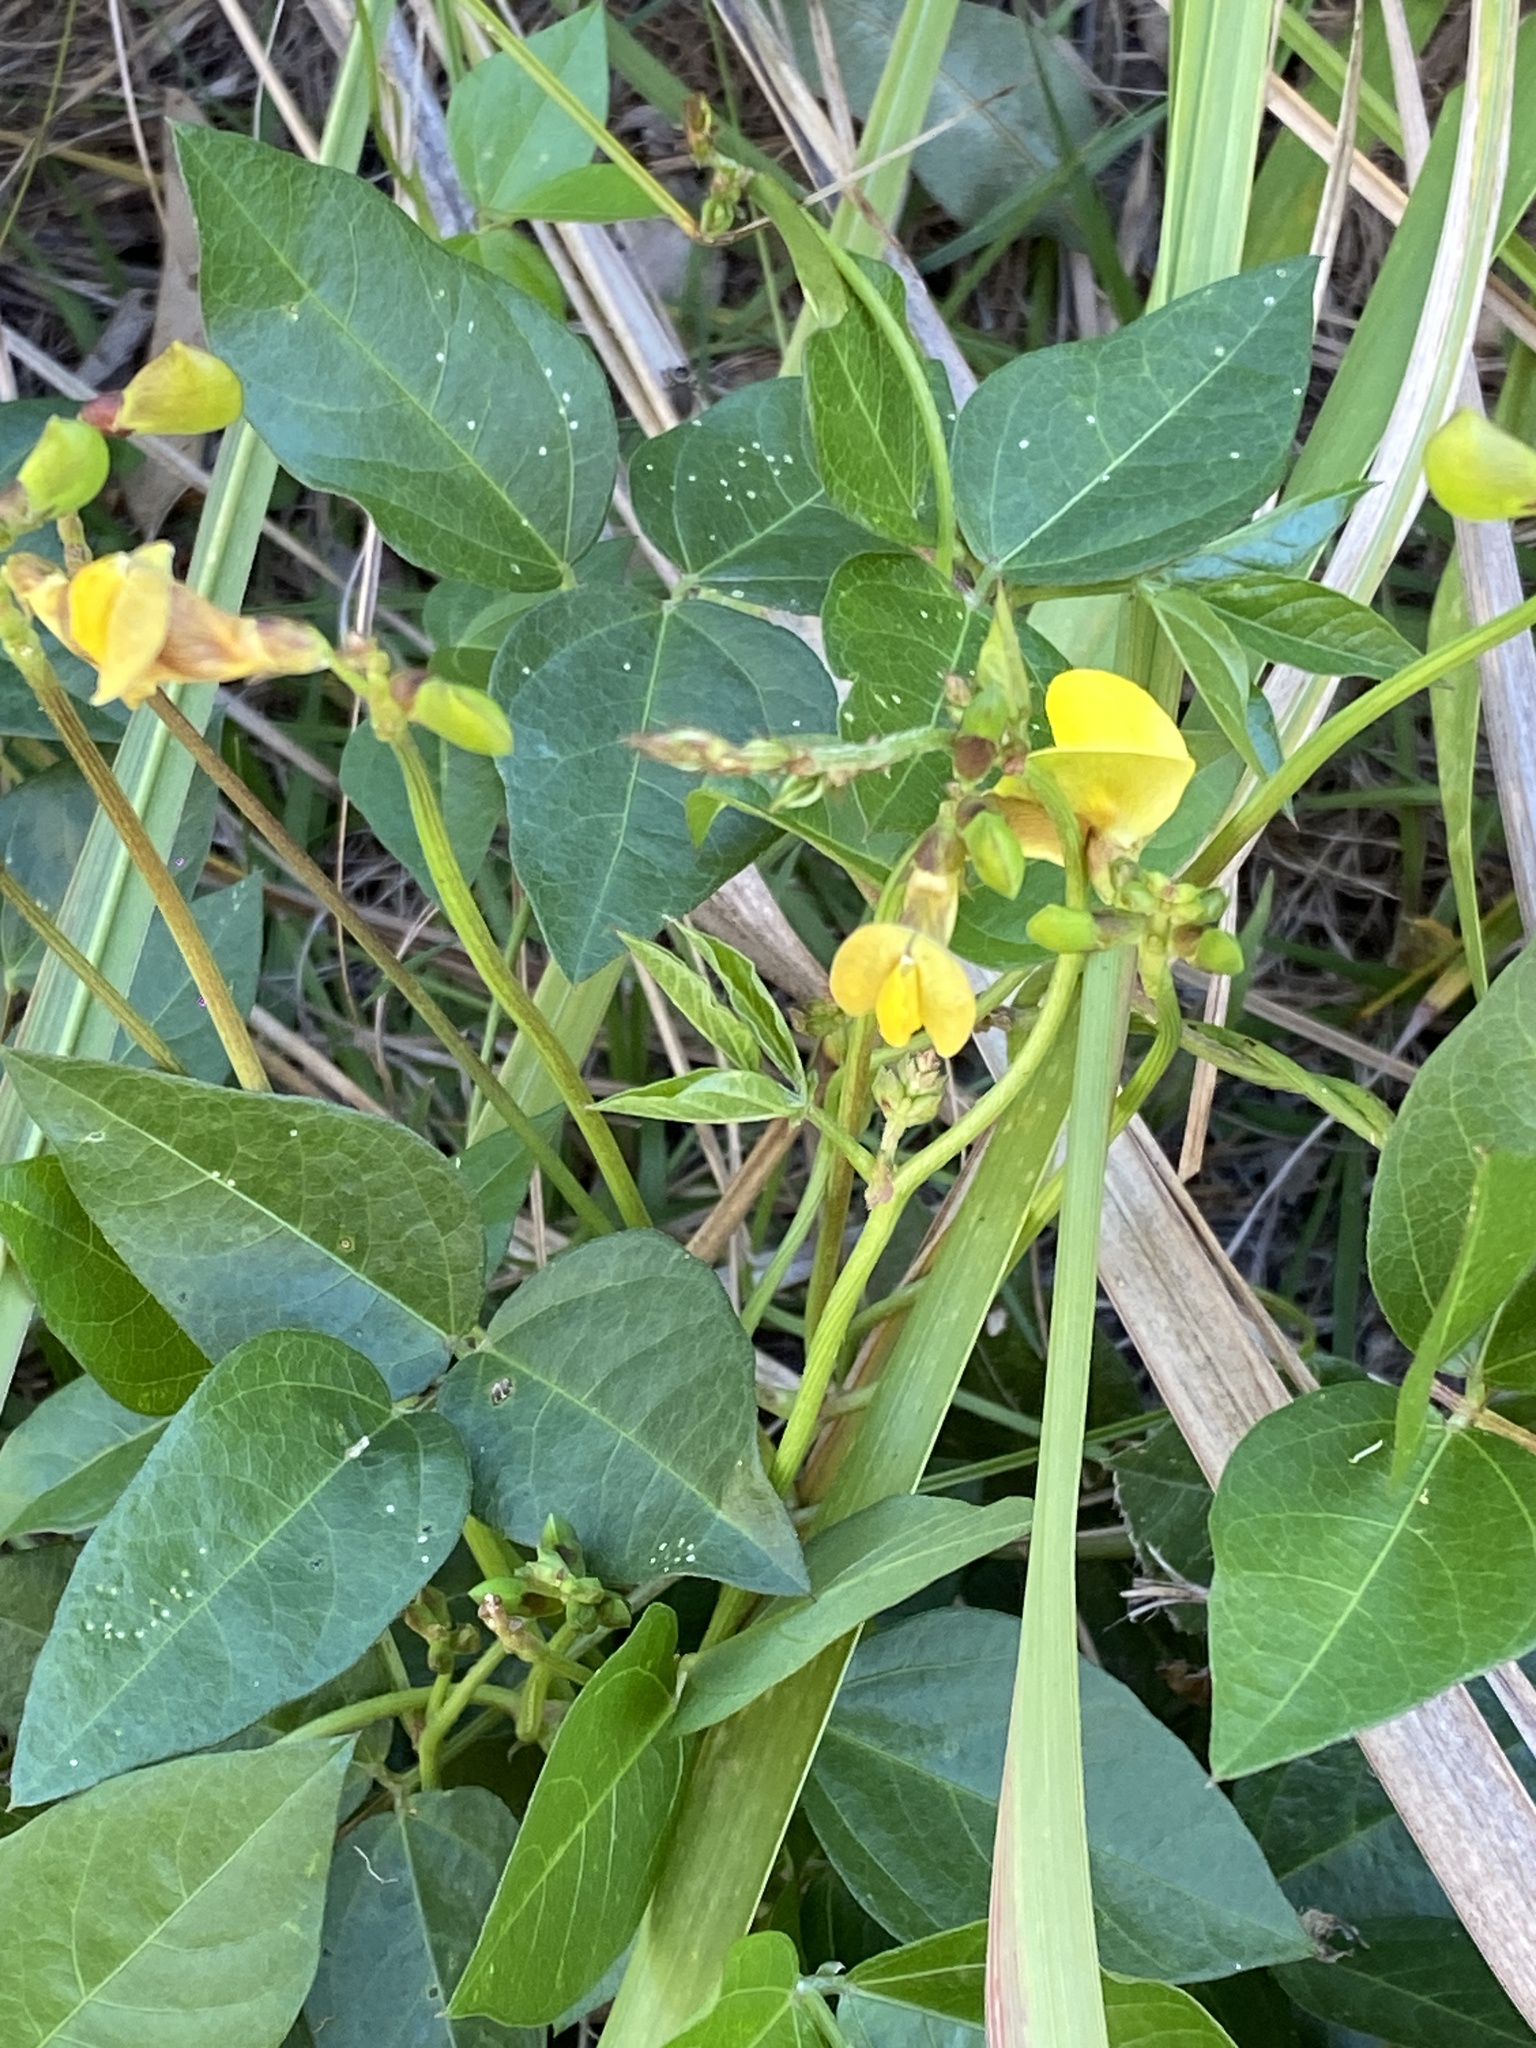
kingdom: Plantae
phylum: Tracheophyta
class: Magnoliopsida
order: Fabales
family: Fabaceae
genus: Vigna
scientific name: Vigna luteola
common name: Hairypod cowpea
